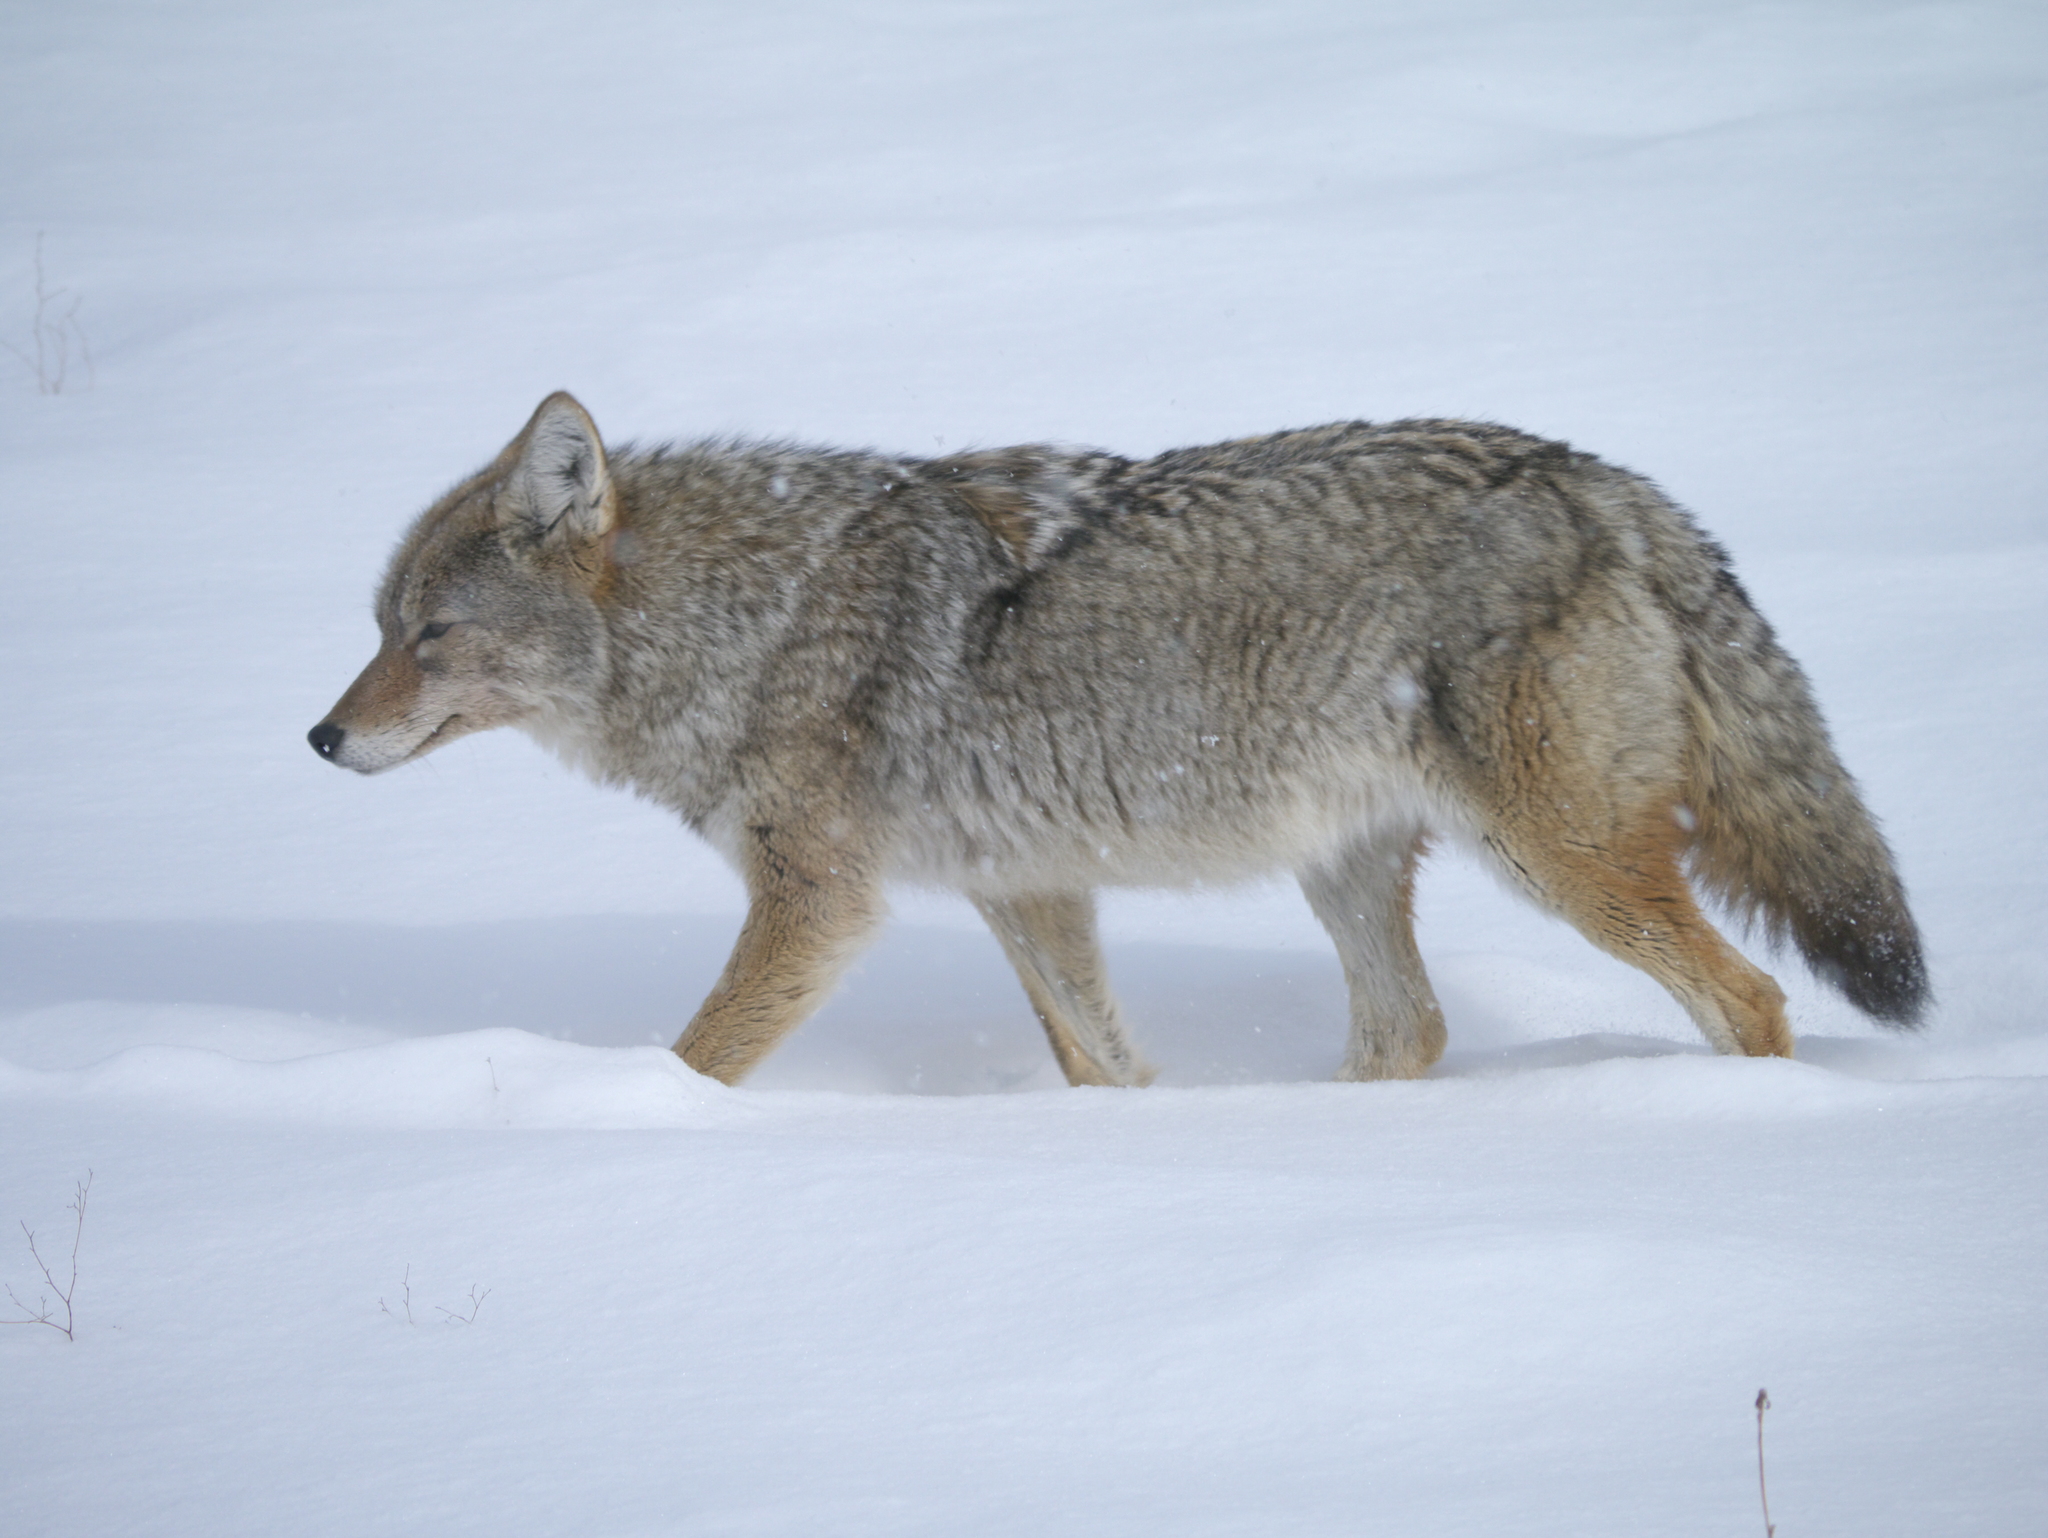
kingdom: Animalia
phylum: Chordata
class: Mammalia
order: Carnivora
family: Canidae
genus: Canis
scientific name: Canis latrans
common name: Coyote
